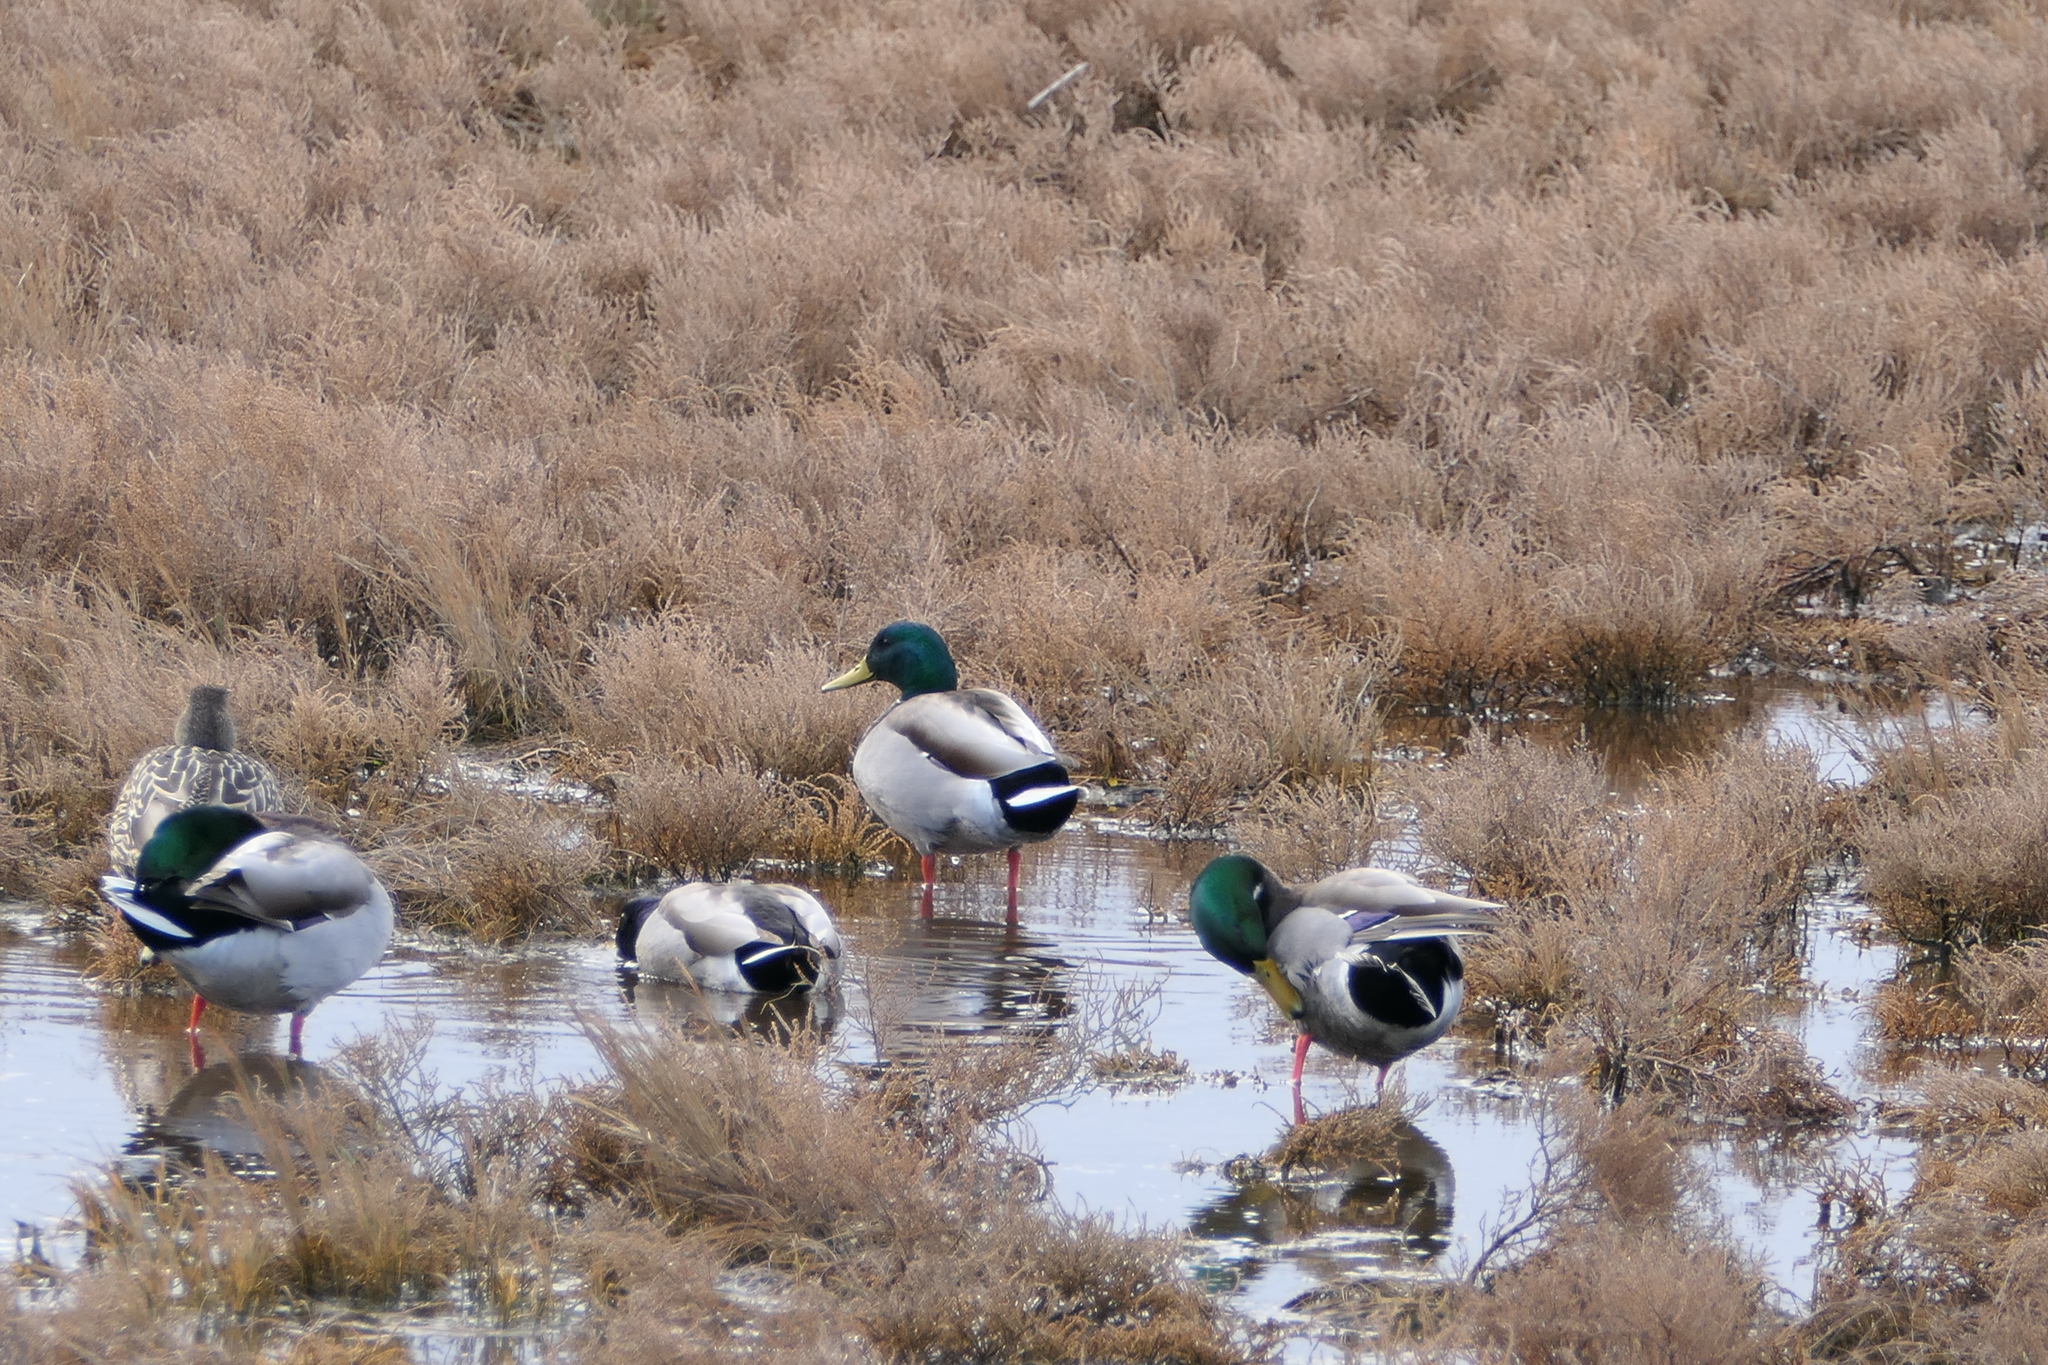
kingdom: Animalia
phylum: Chordata
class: Aves
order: Anseriformes
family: Anatidae
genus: Anas
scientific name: Anas platyrhynchos
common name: Mallard
